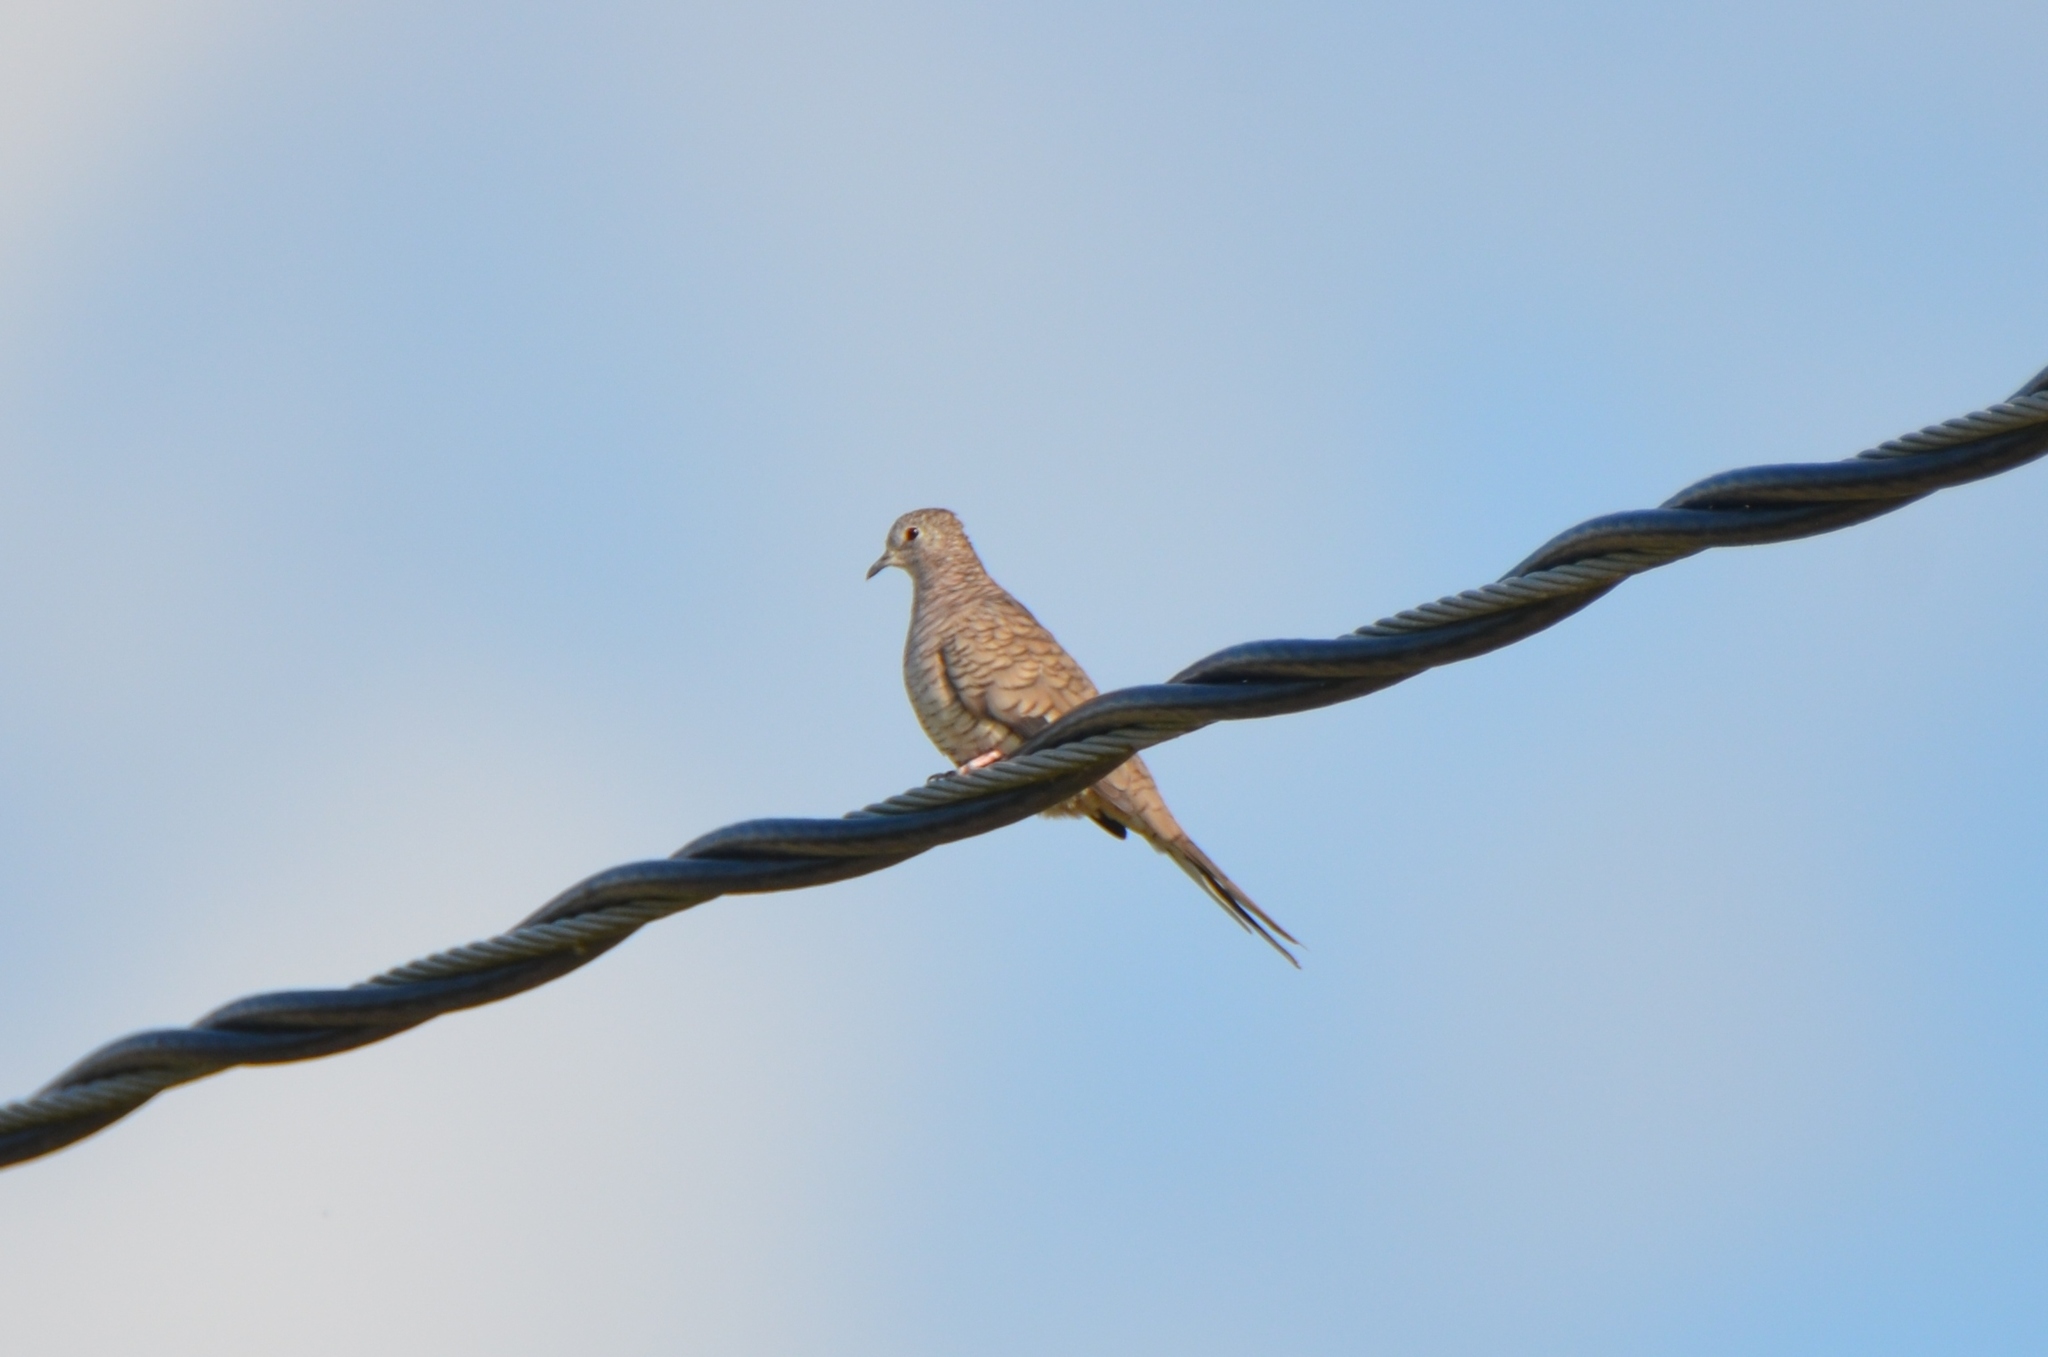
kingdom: Animalia
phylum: Chordata
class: Aves
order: Columbiformes
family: Columbidae
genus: Columbina
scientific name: Columbina inca
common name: Inca dove
